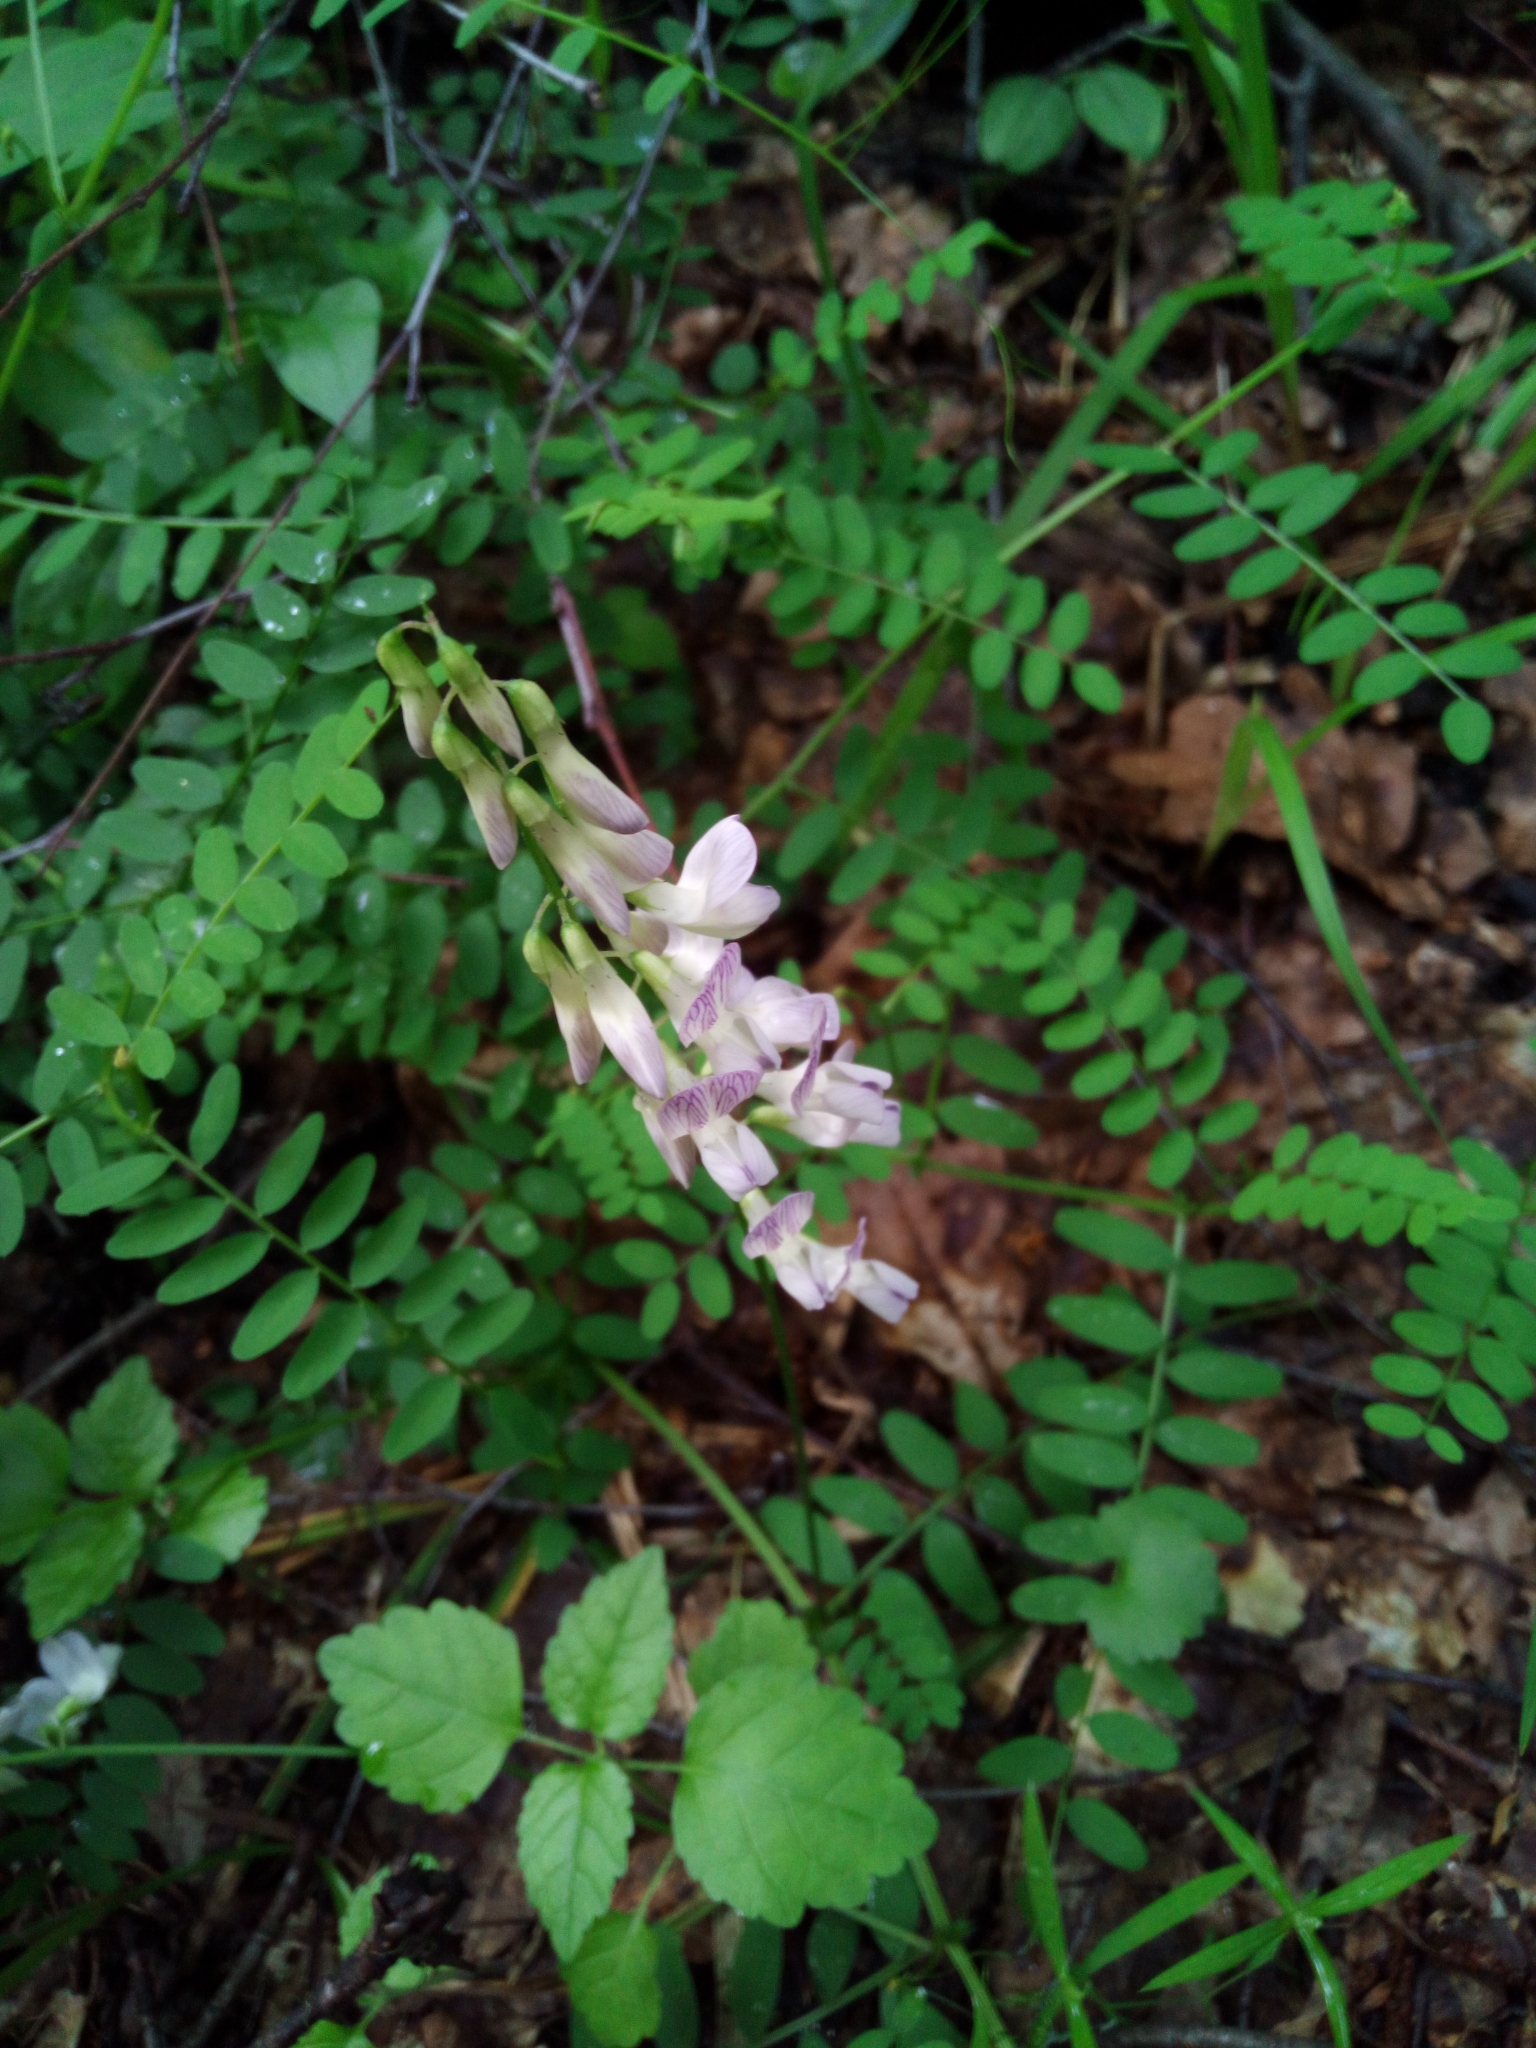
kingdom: Plantae
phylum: Tracheophyta
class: Magnoliopsida
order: Fabales
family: Fabaceae
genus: Vicia
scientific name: Vicia sylvatica
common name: Wood vetch
